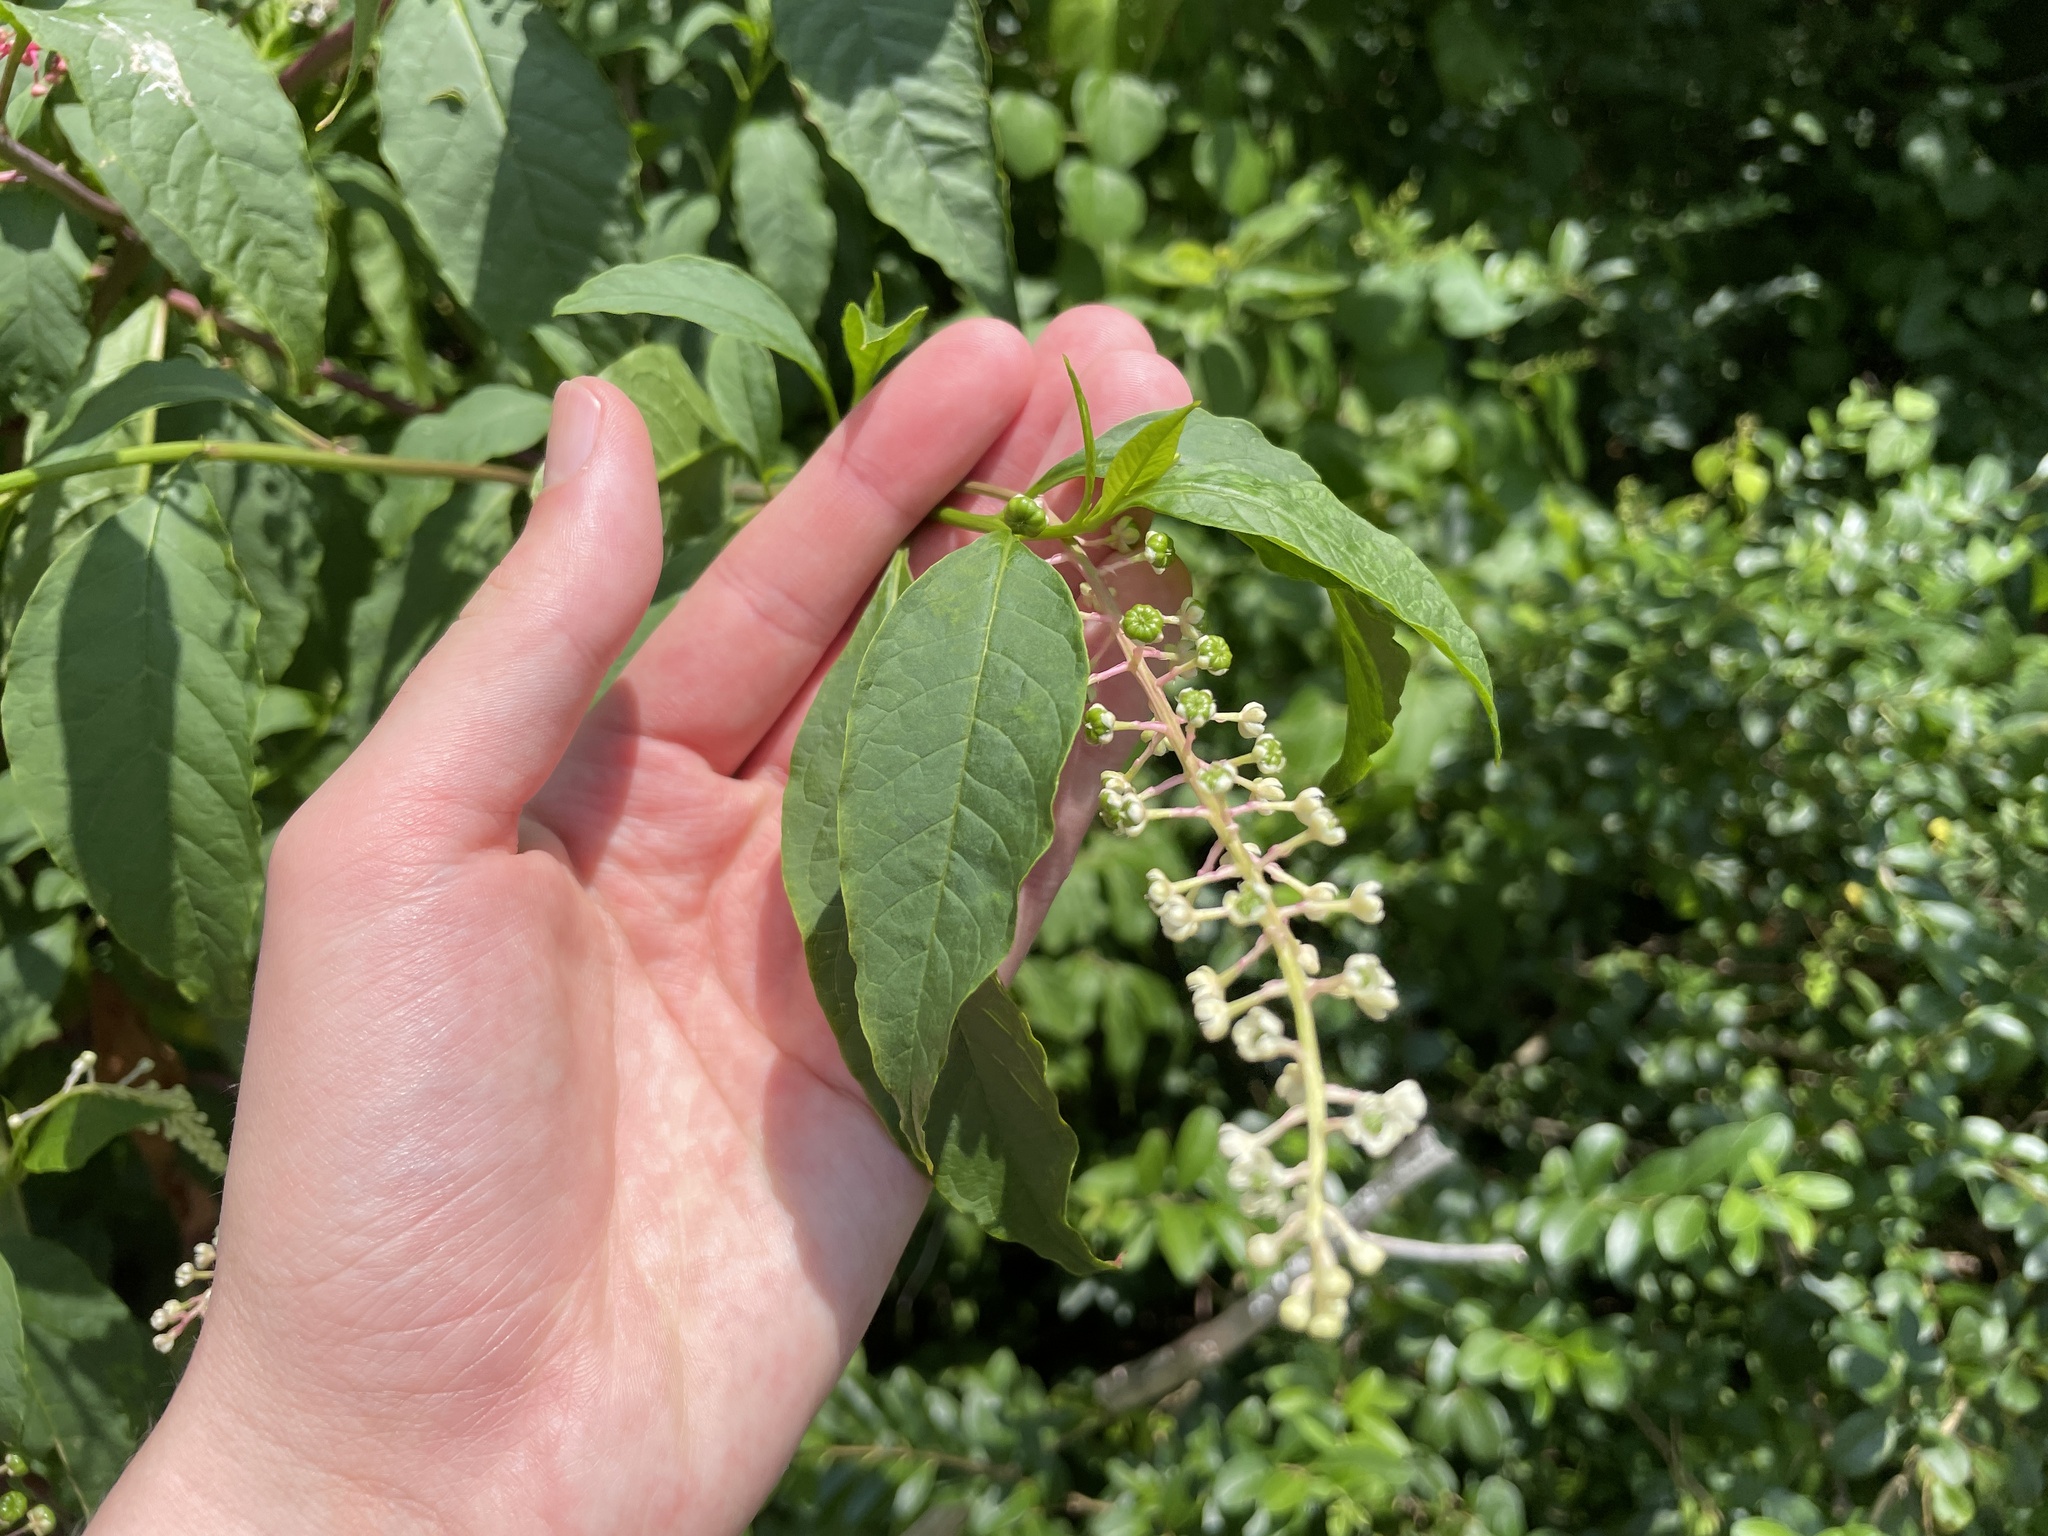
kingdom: Plantae
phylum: Tracheophyta
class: Magnoliopsida
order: Caryophyllales
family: Phytolaccaceae
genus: Phytolacca
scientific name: Phytolacca americana
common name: American pokeweed
